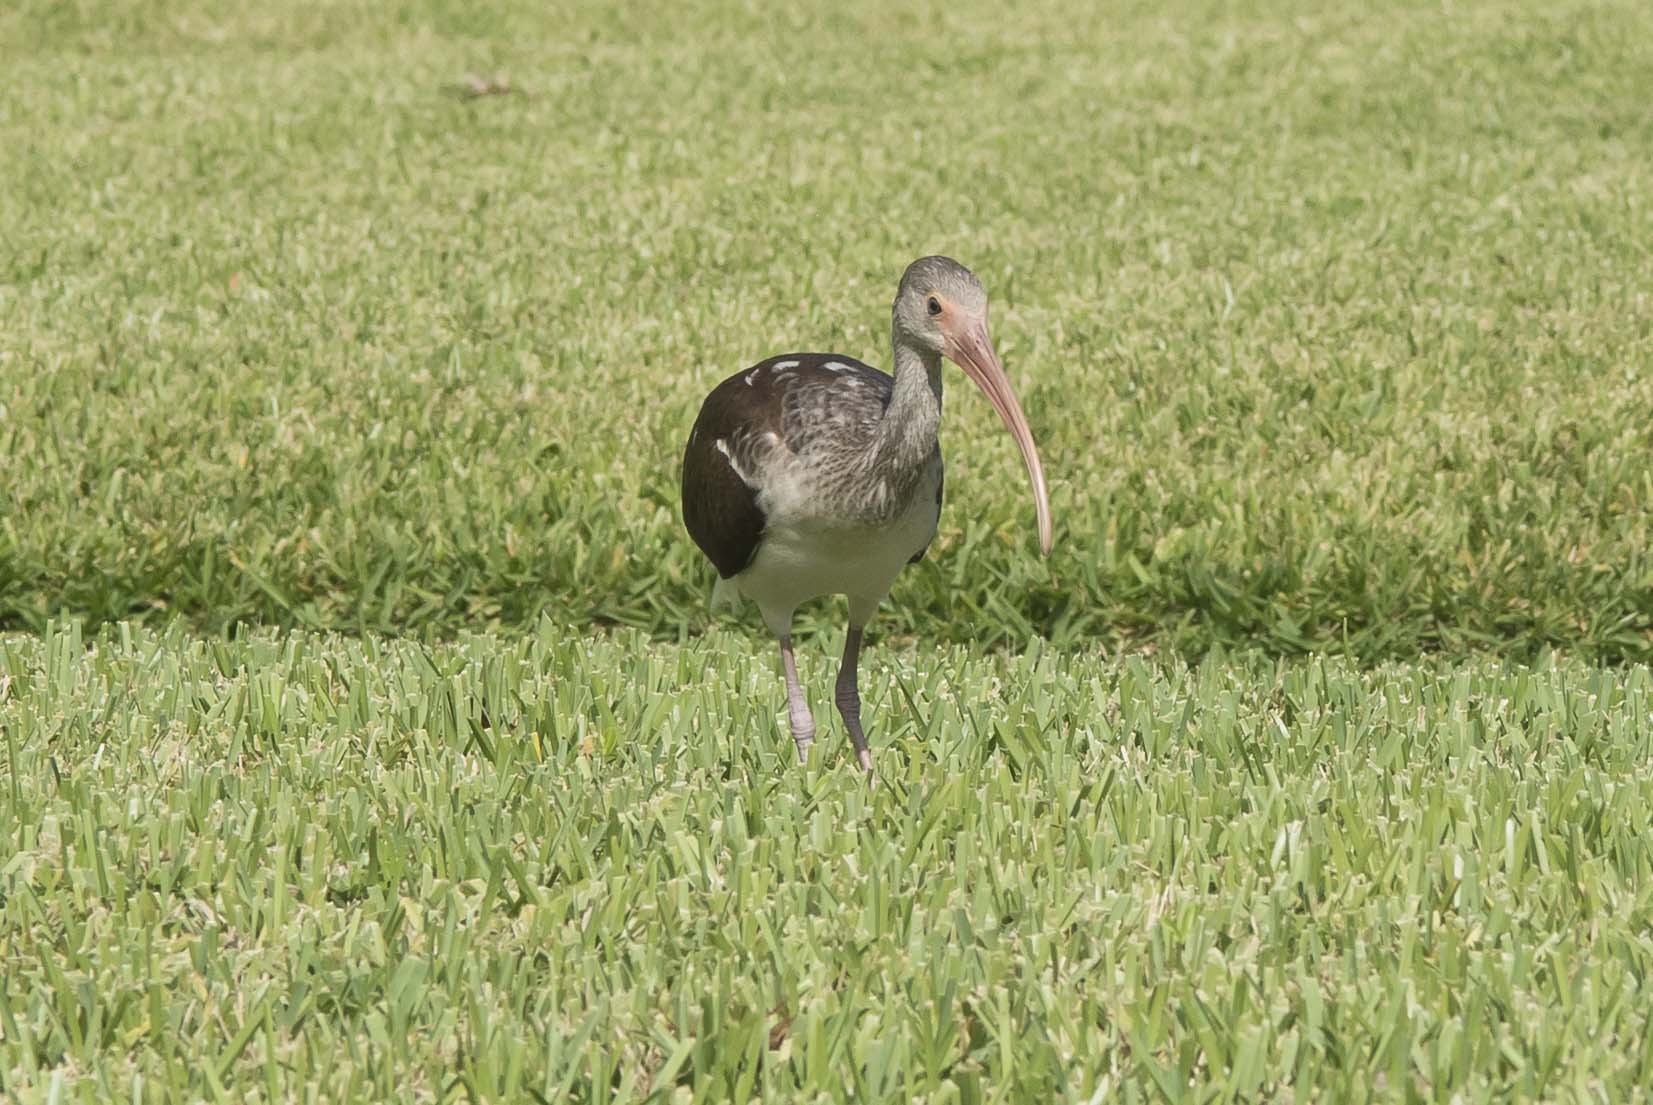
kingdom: Animalia
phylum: Chordata
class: Aves
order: Pelecaniformes
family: Threskiornithidae
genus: Eudocimus
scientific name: Eudocimus albus
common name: White ibis
